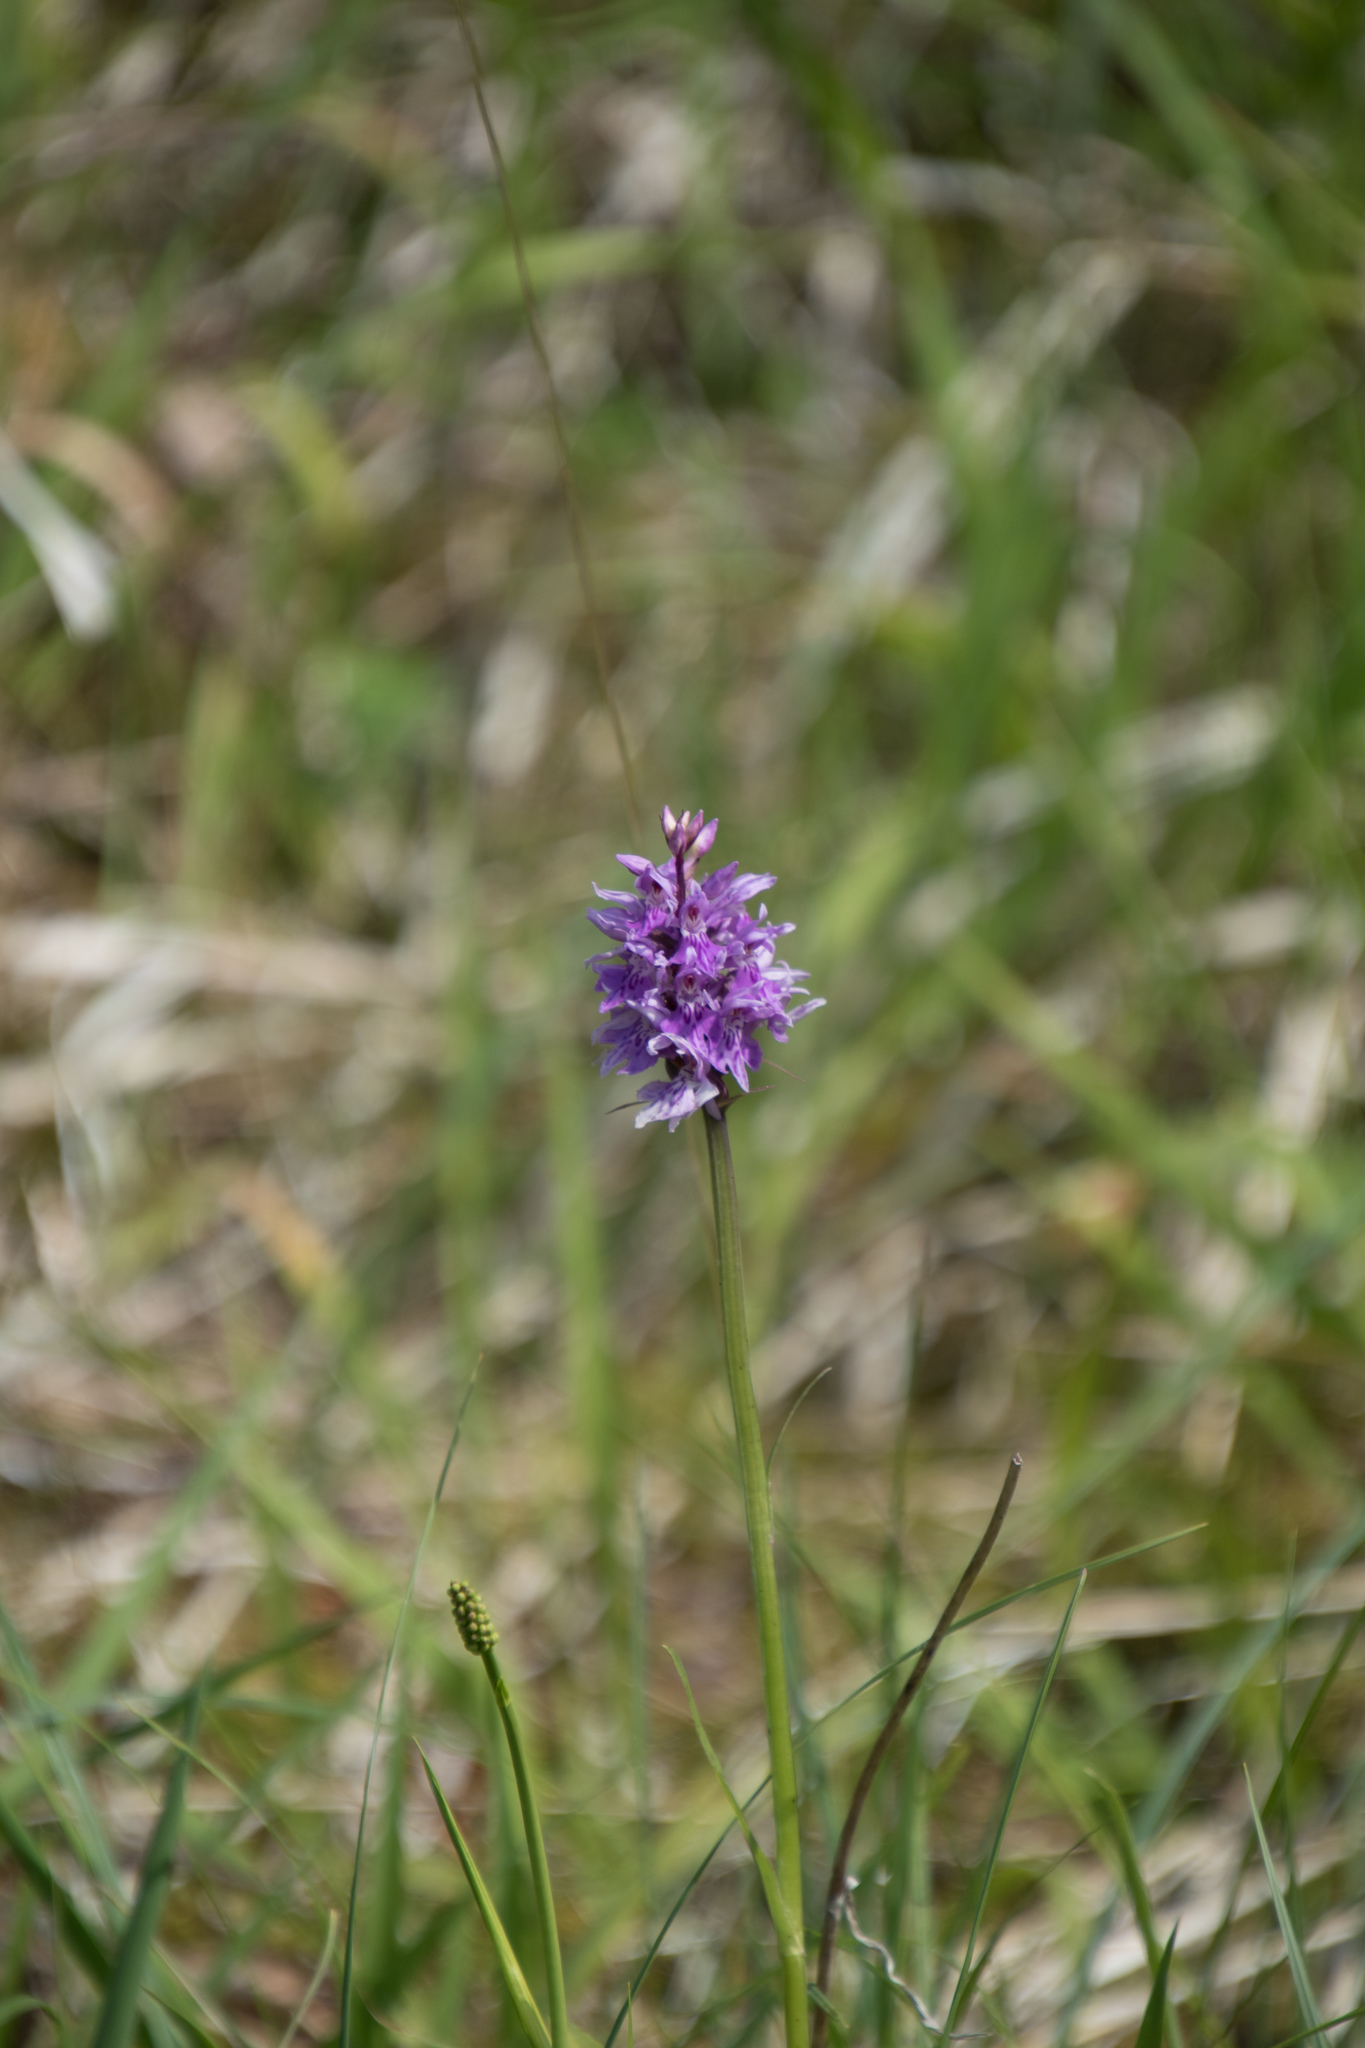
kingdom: Plantae
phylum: Tracheophyta
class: Liliopsida
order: Asparagales
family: Orchidaceae
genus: Dactylorhiza
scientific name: Dactylorhiza maculata
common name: Heath spotted-orchid
